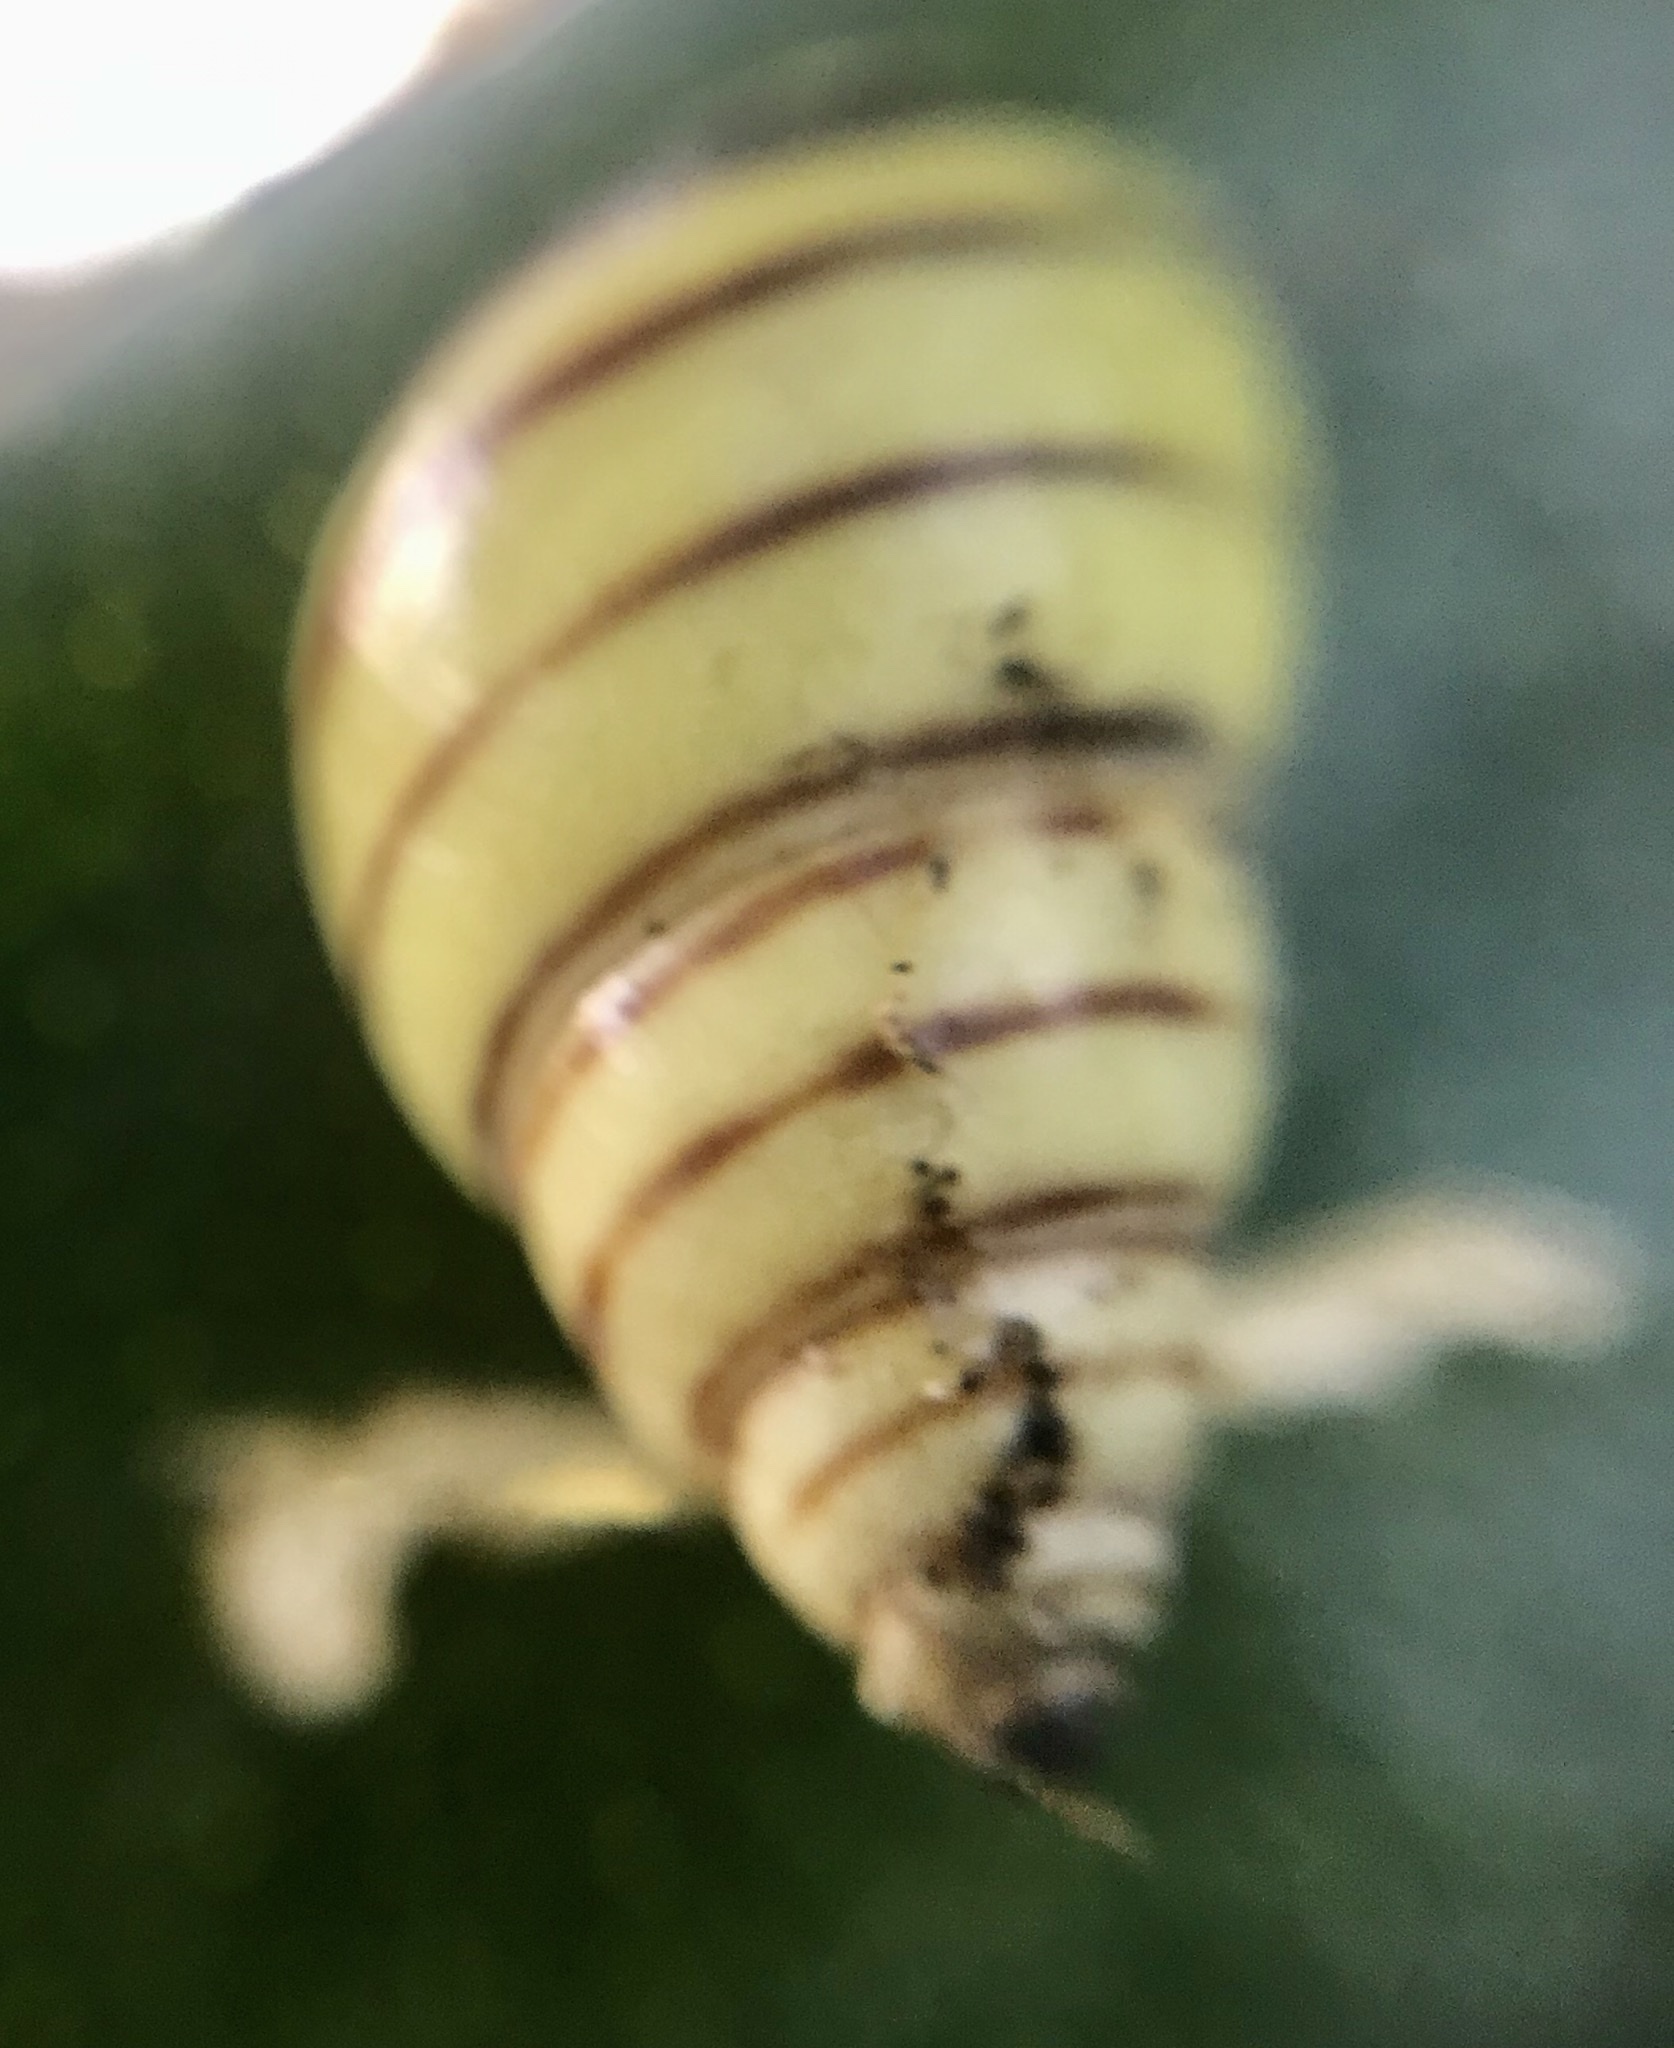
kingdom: Animalia
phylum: Mollusca
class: Gastropoda
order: Stylommatophora
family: Bulimulidae
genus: Drymaeus
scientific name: Drymaeus
